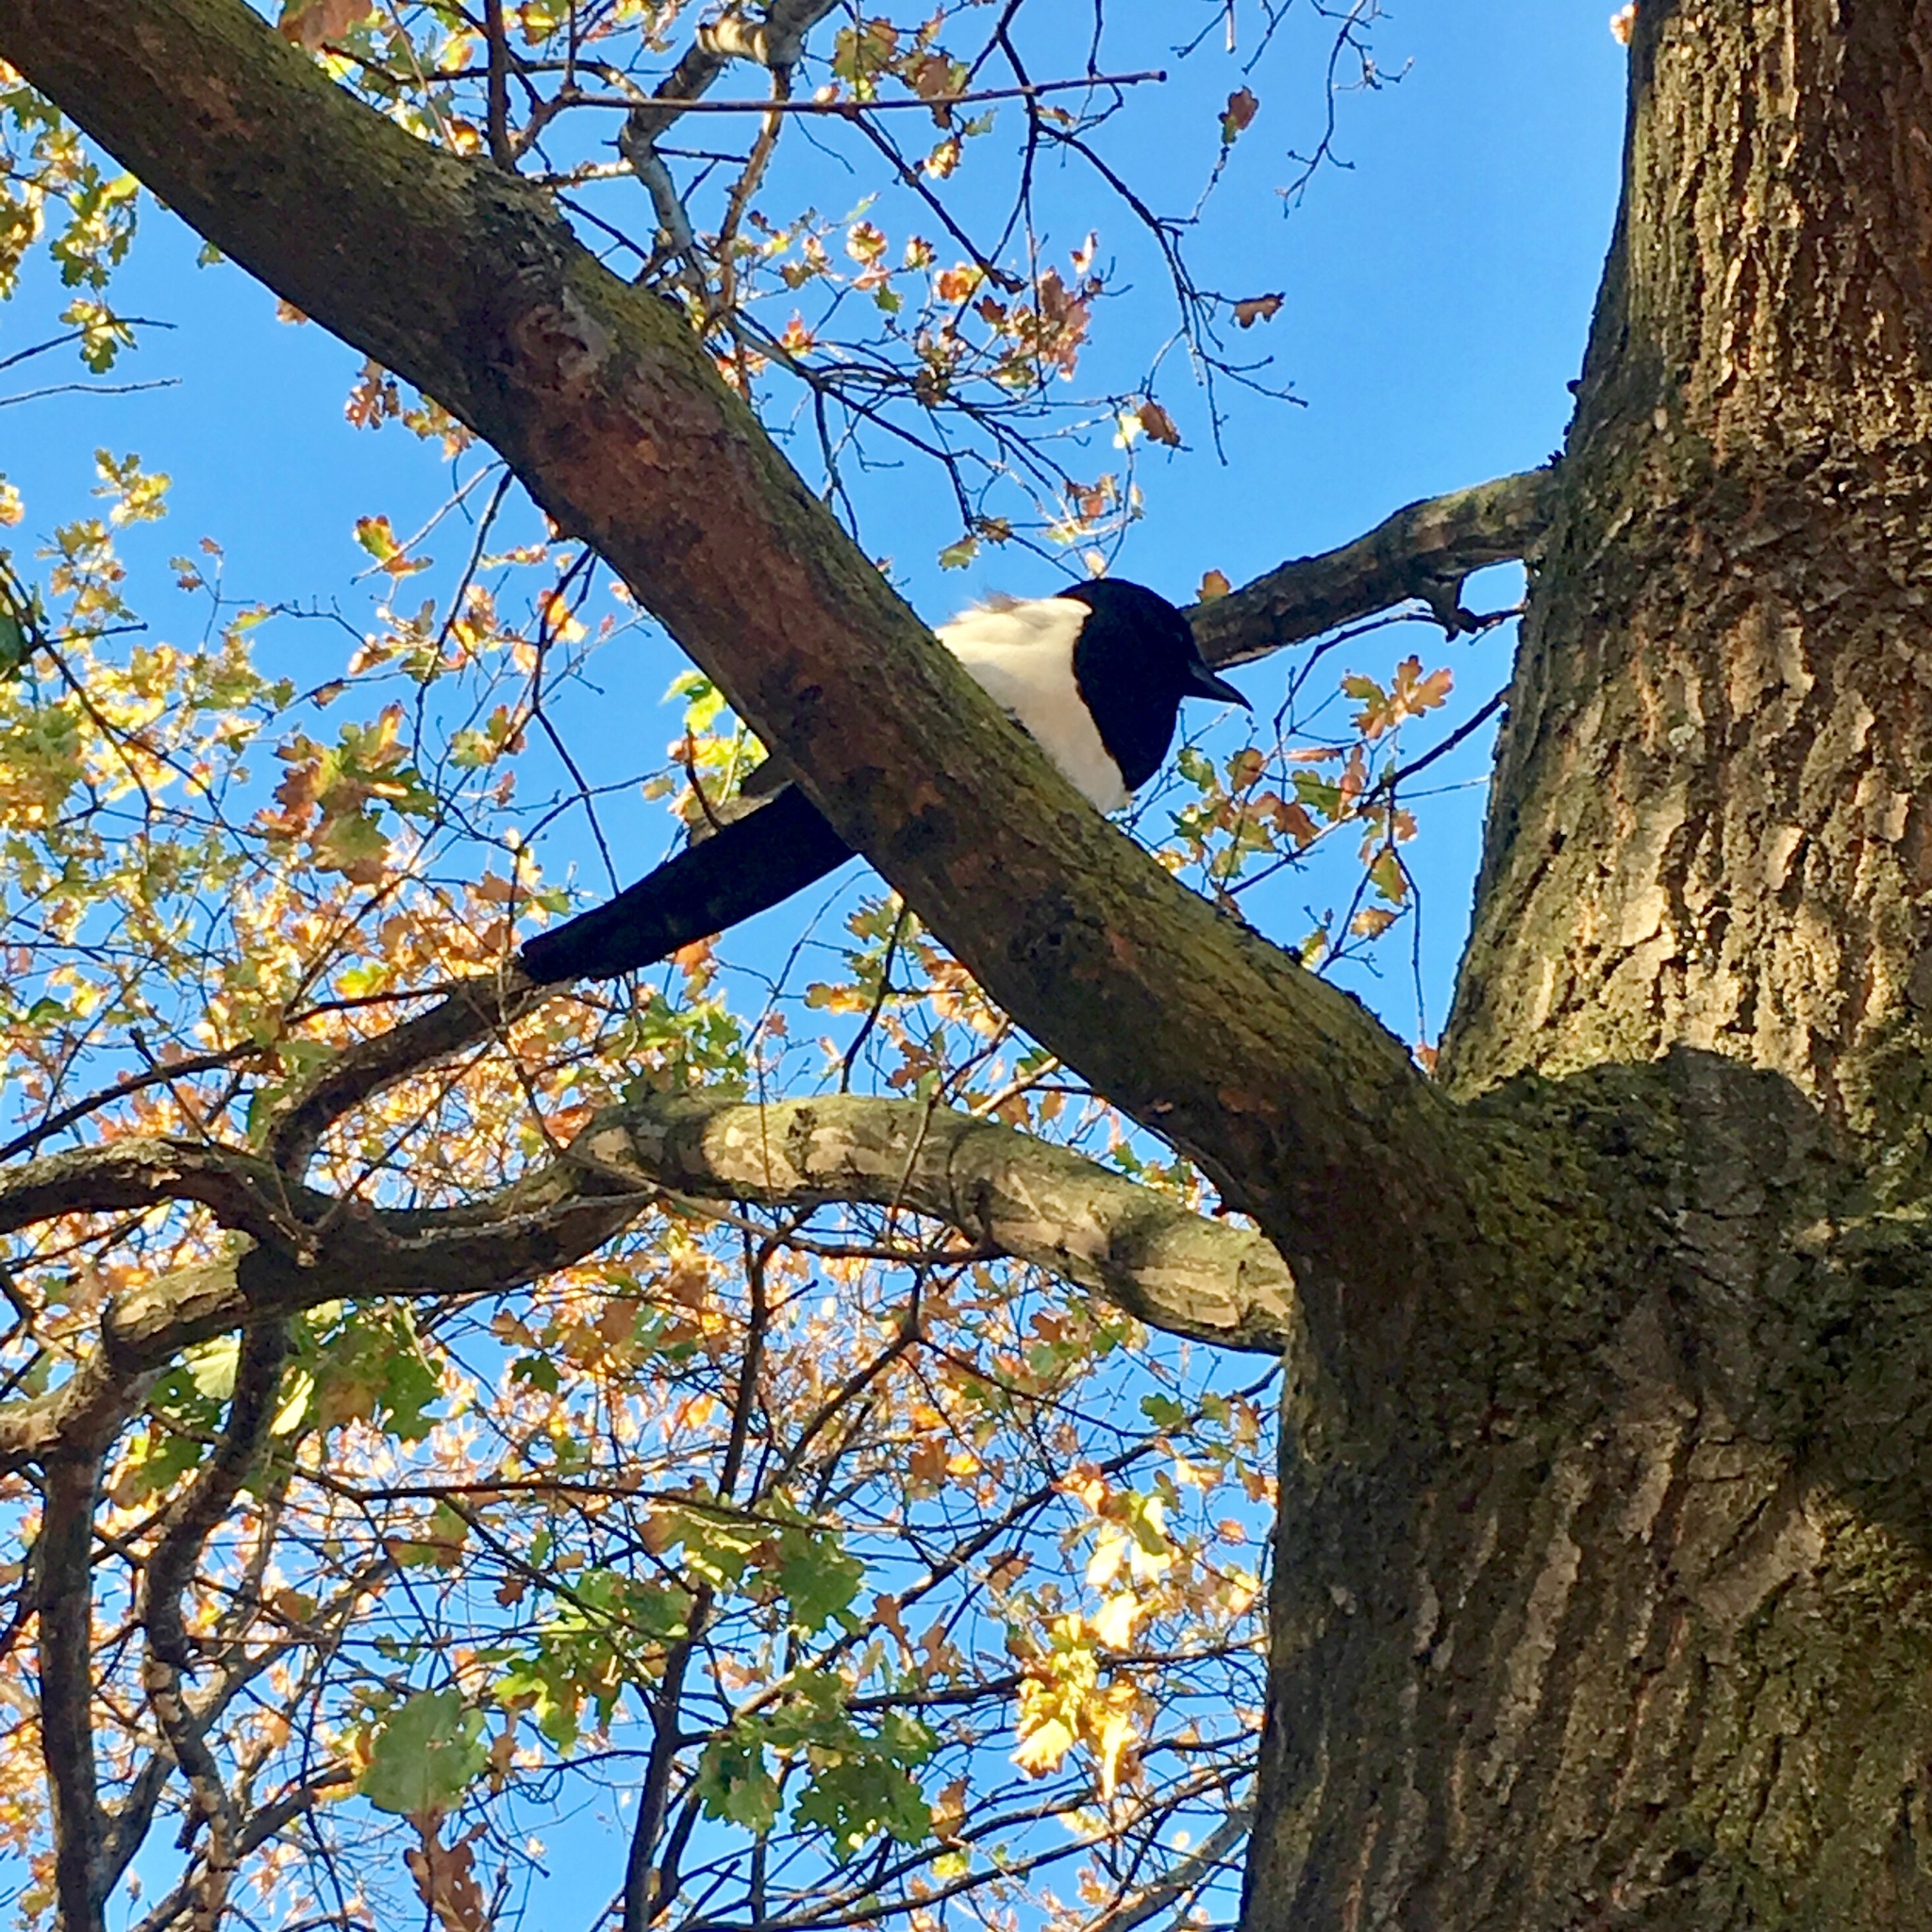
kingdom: Animalia
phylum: Chordata
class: Aves
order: Passeriformes
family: Corvidae
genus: Pica
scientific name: Pica pica
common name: Eurasian magpie
